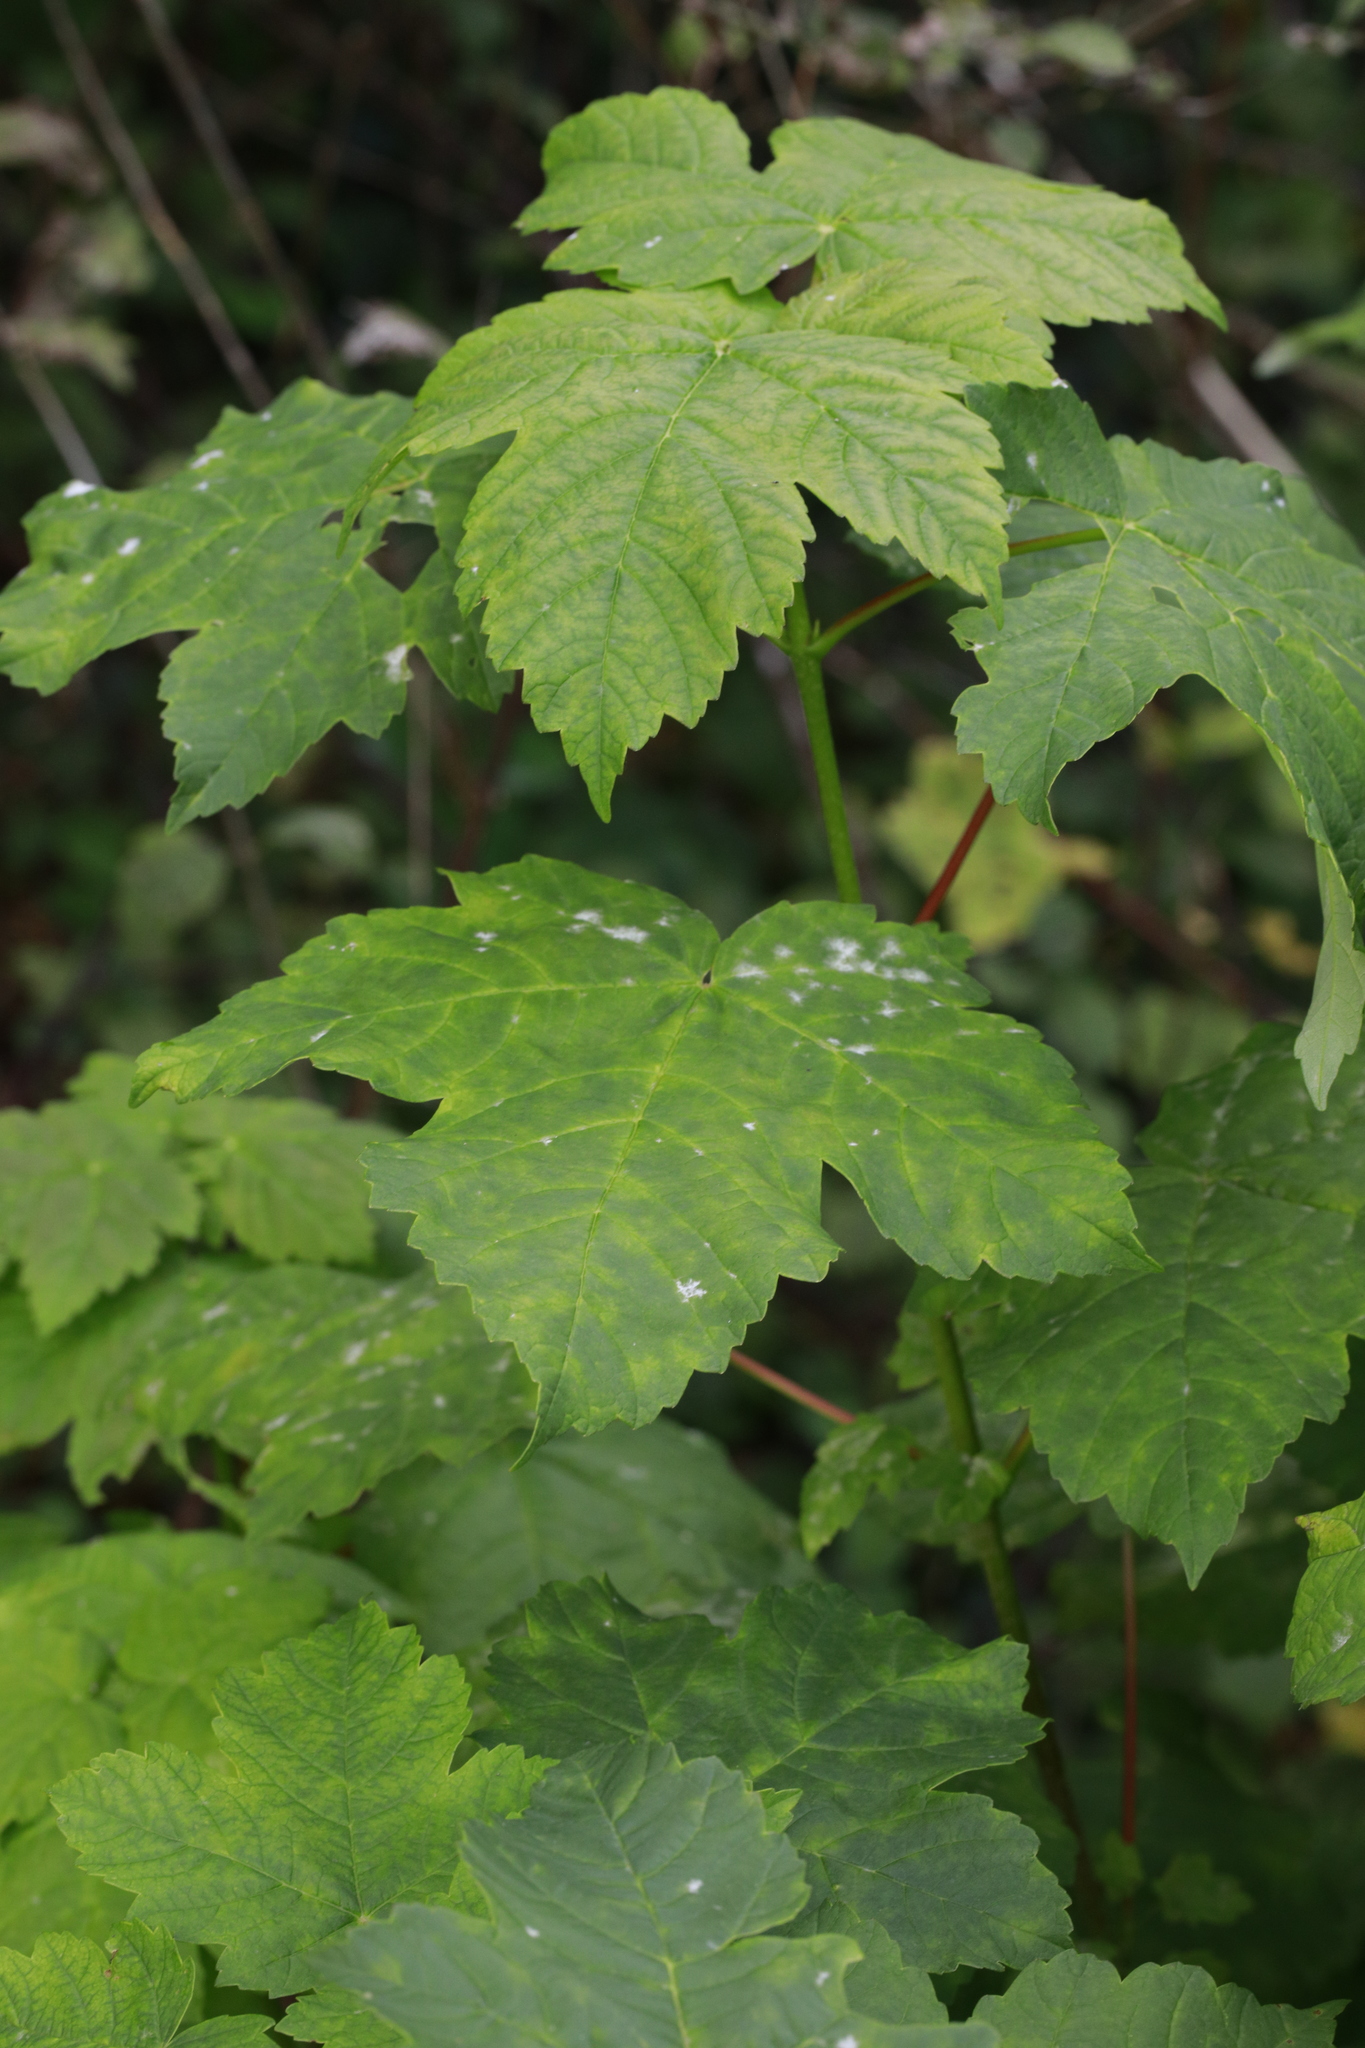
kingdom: Plantae
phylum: Tracheophyta
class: Magnoliopsida
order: Sapindales
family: Sapindaceae
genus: Acer
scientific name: Acer pseudoplatanus
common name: Sycamore
